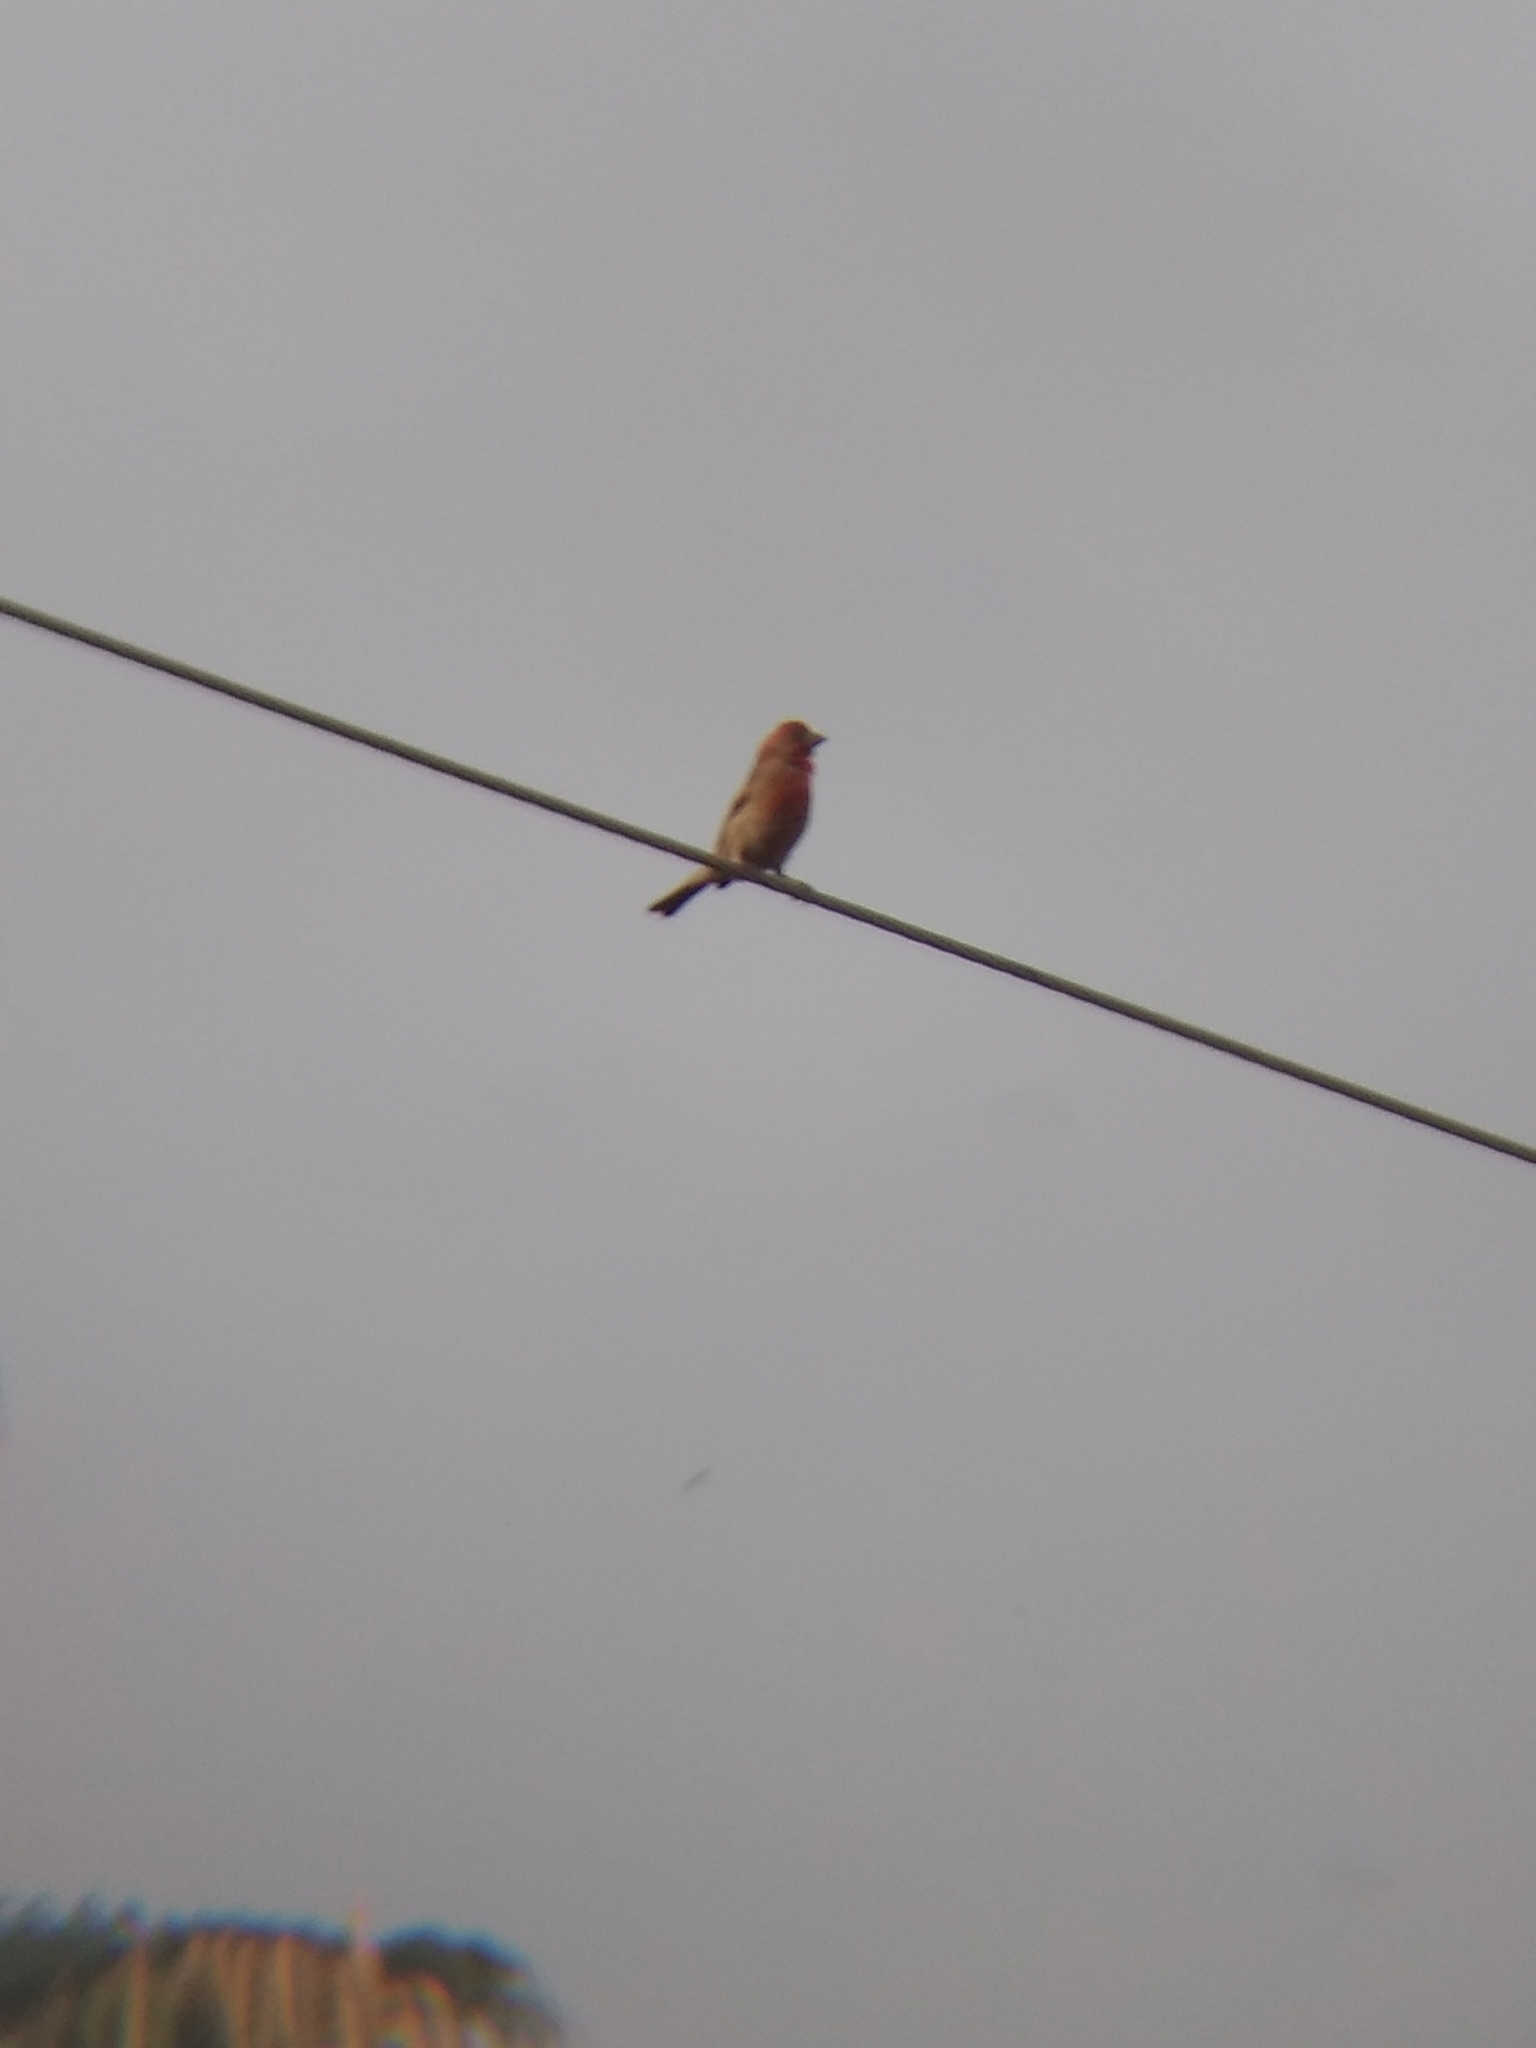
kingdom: Animalia
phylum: Chordata
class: Aves
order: Passeriformes
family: Fringillidae
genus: Haemorhous
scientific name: Haemorhous mexicanus
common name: House finch
